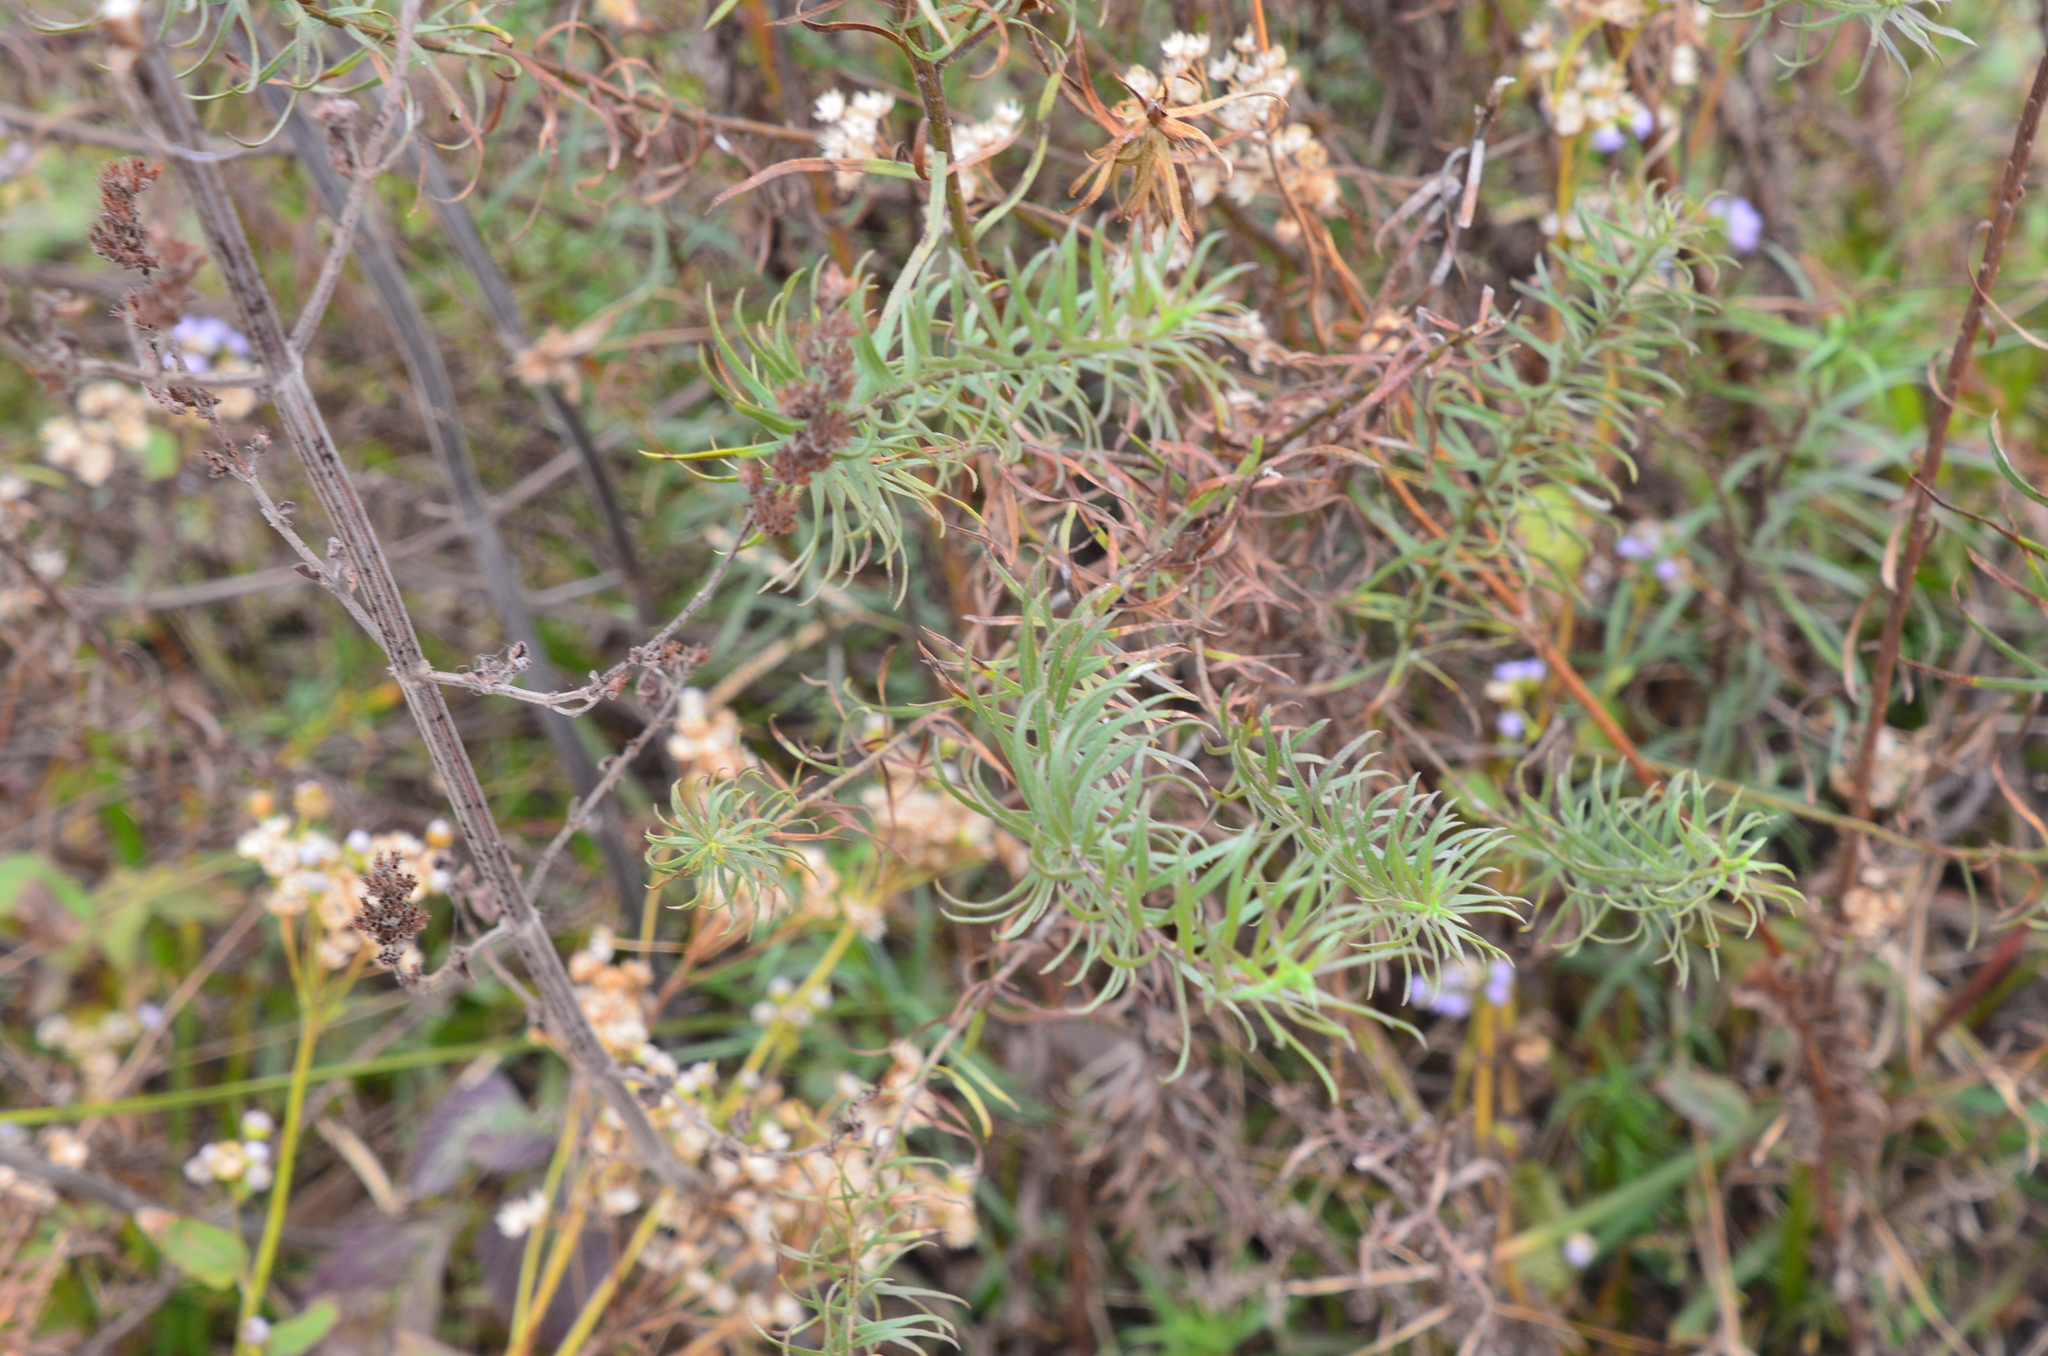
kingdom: Plantae
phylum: Tracheophyta
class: Magnoliopsida
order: Asterales
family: Asteraceae
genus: Baccharis
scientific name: Baccharis coridifolia
